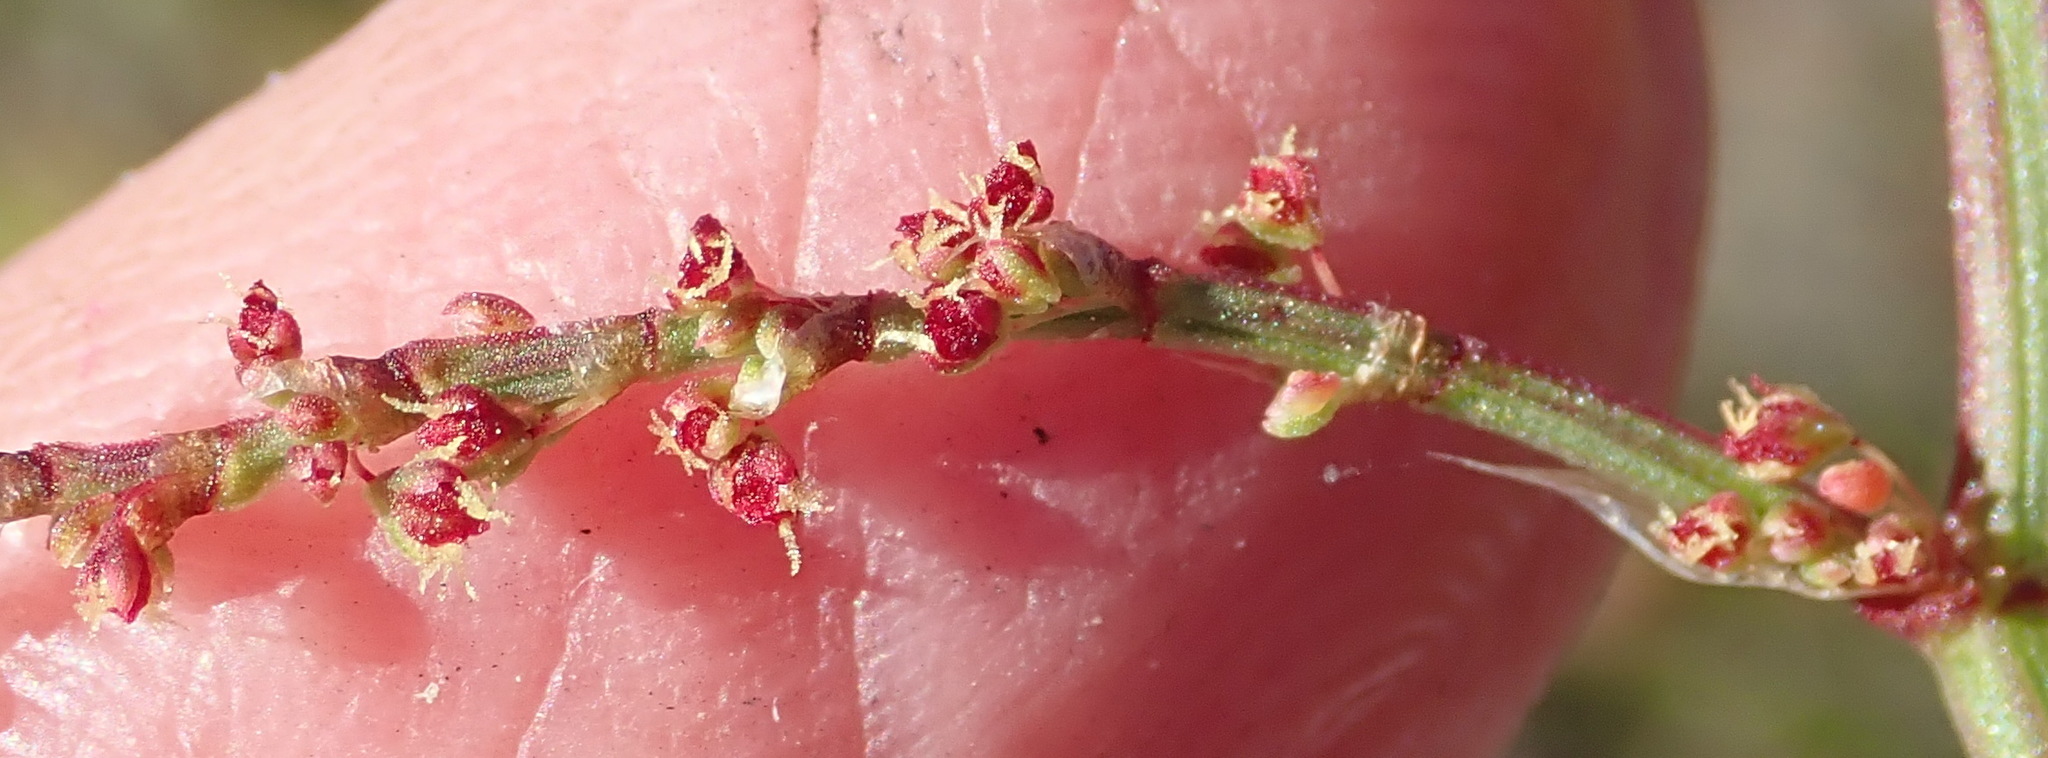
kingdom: Plantae
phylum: Tracheophyta
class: Magnoliopsida
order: Caryophyllales
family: Polygonaceae
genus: Rumex
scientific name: Rumex acetosella
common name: Common sheep sorrel
